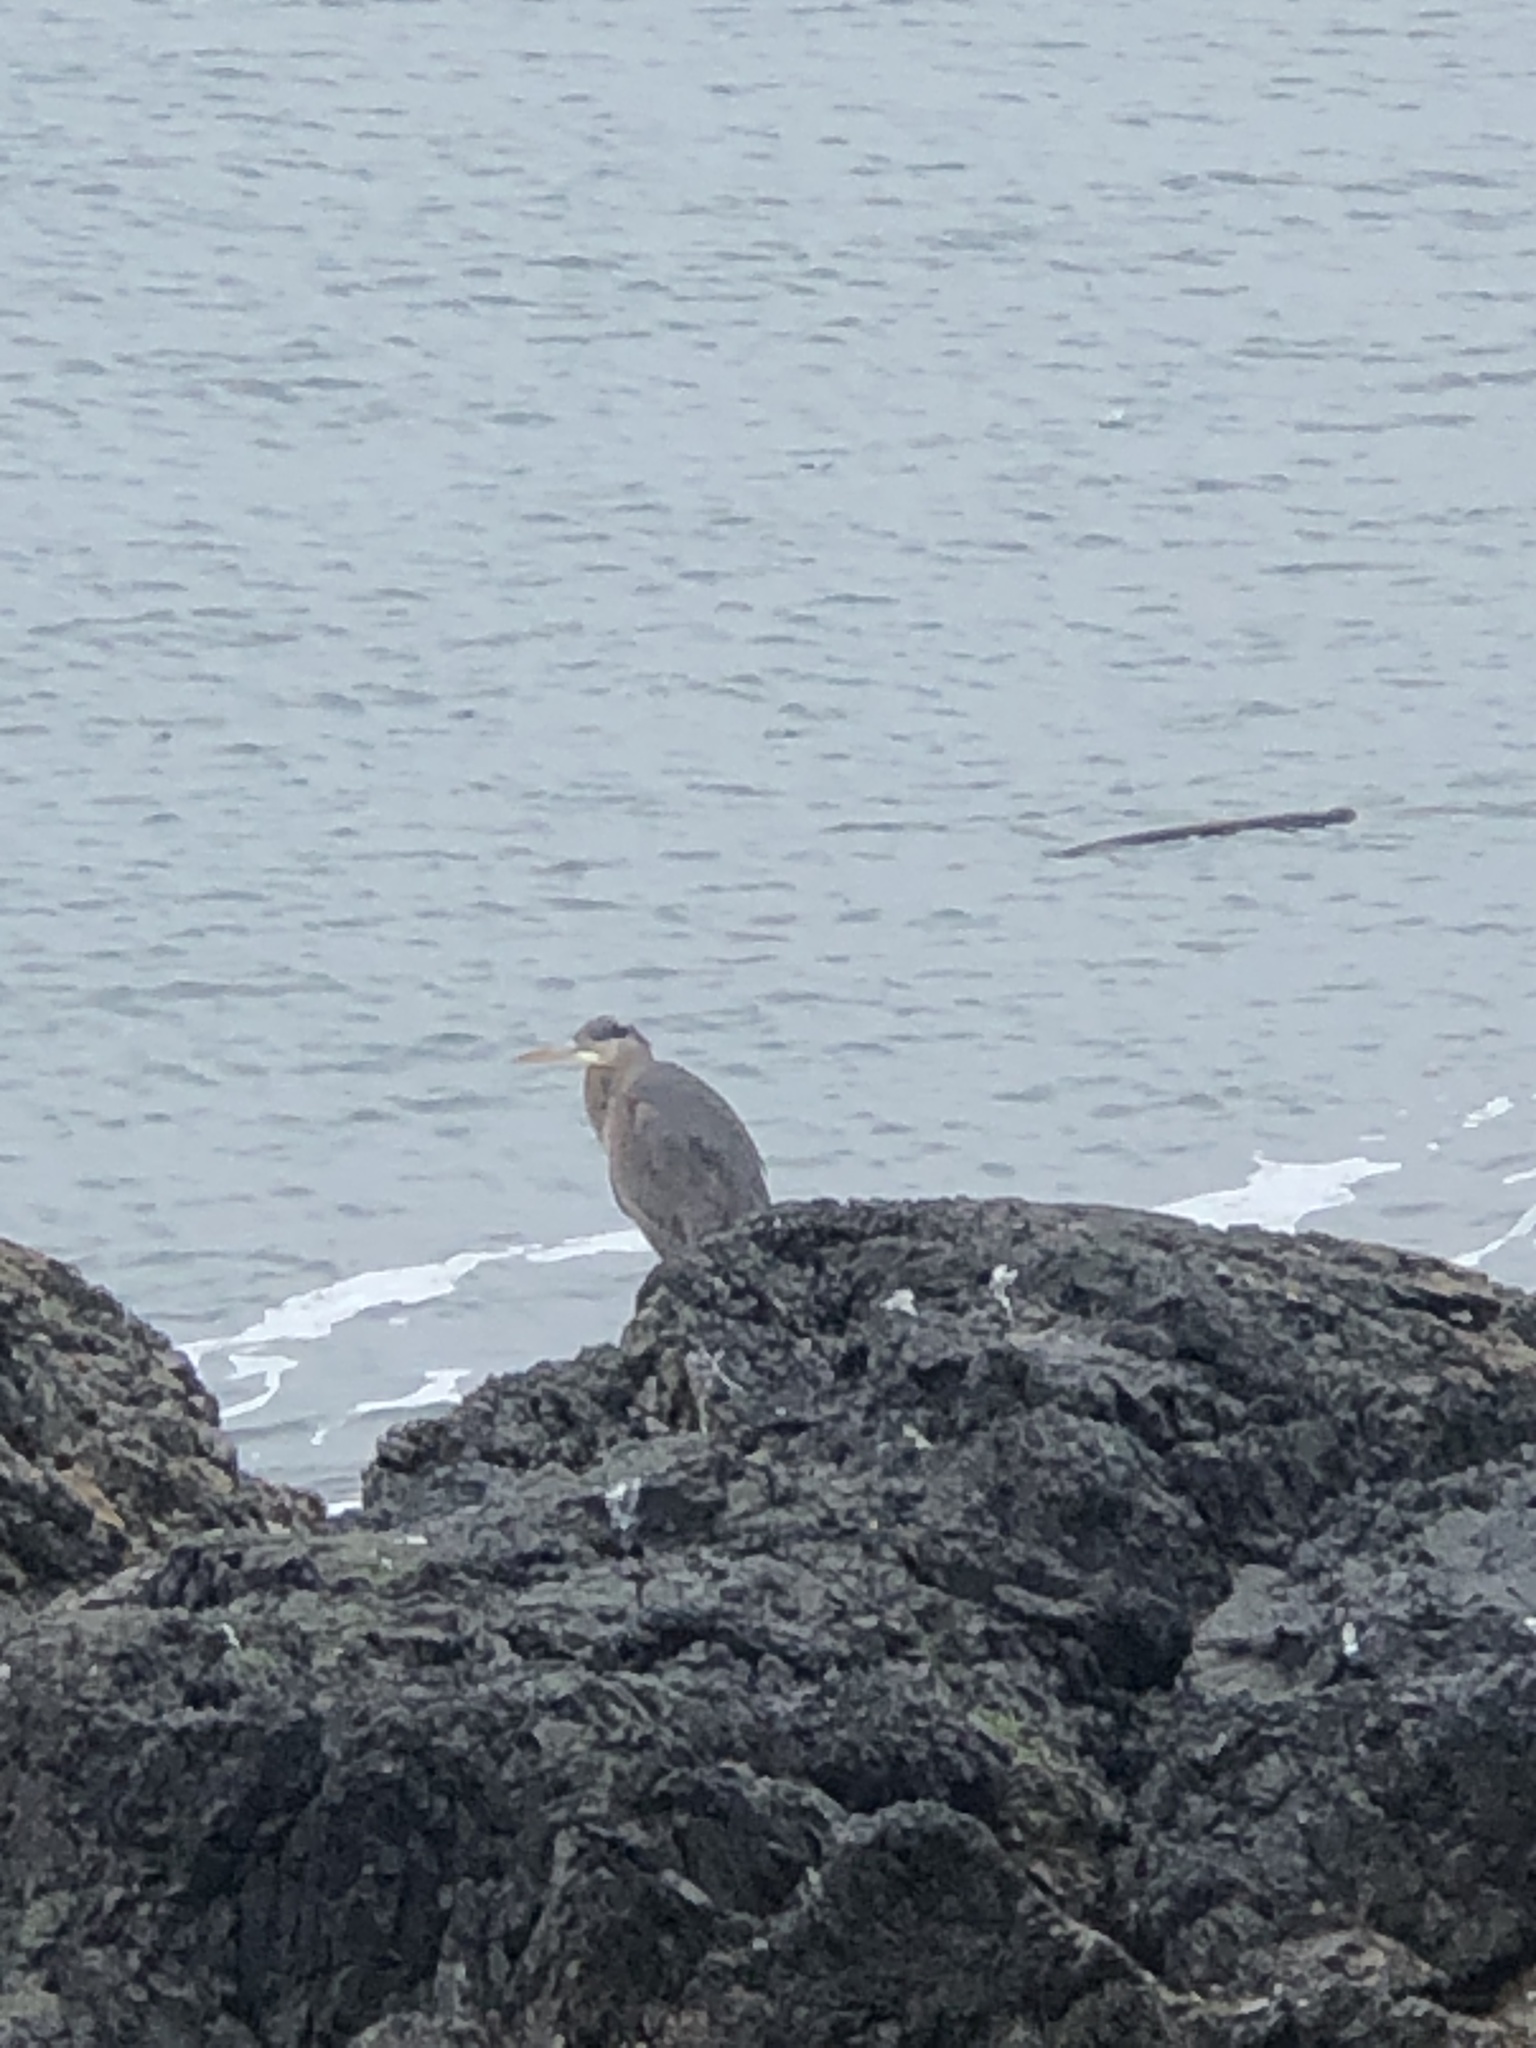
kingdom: Animalia
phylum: Chordata
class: Aves
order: Pelecaniformes
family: Ardeidae
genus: Ardea
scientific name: Ardea herodias
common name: Great blue heron
